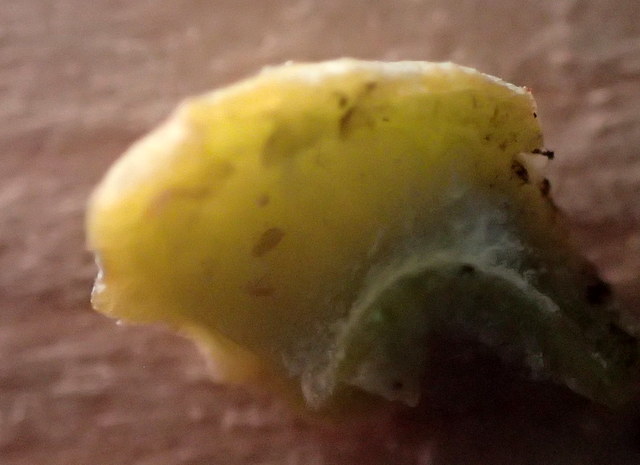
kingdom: Animalia
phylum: Arthropoda
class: Insecta
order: Hemiptera
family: Triozidae
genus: Trioza
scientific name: Trioza magnoliae
